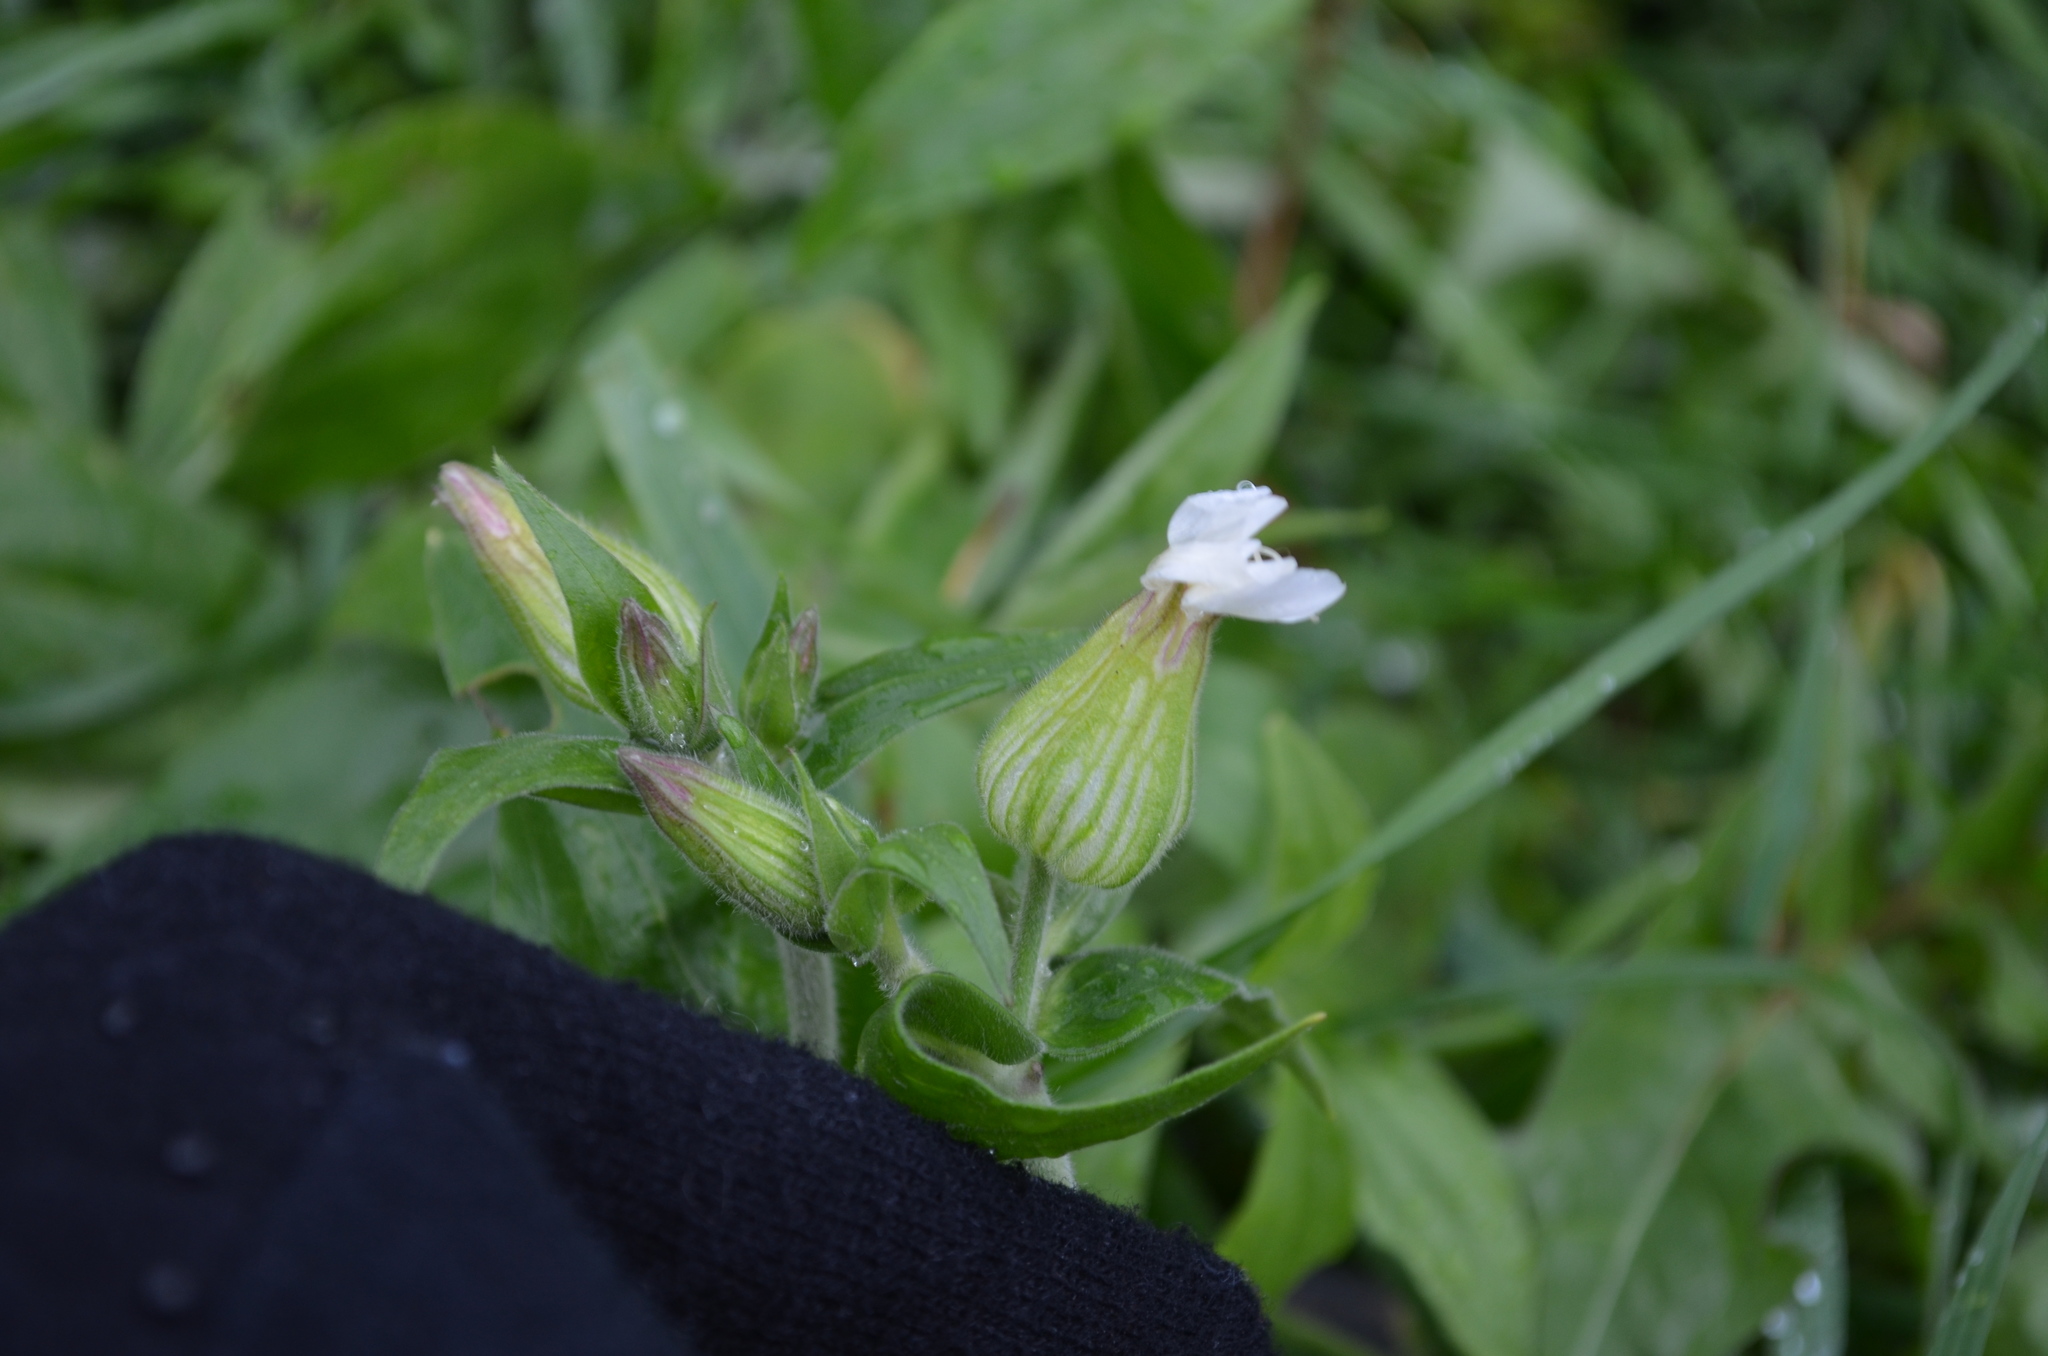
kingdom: Plantae
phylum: Tracheophyta
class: Magnoliopsida
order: Caryophyllales
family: Caryophyllaceae
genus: Silene
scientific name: Silene latifolia
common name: White campion
